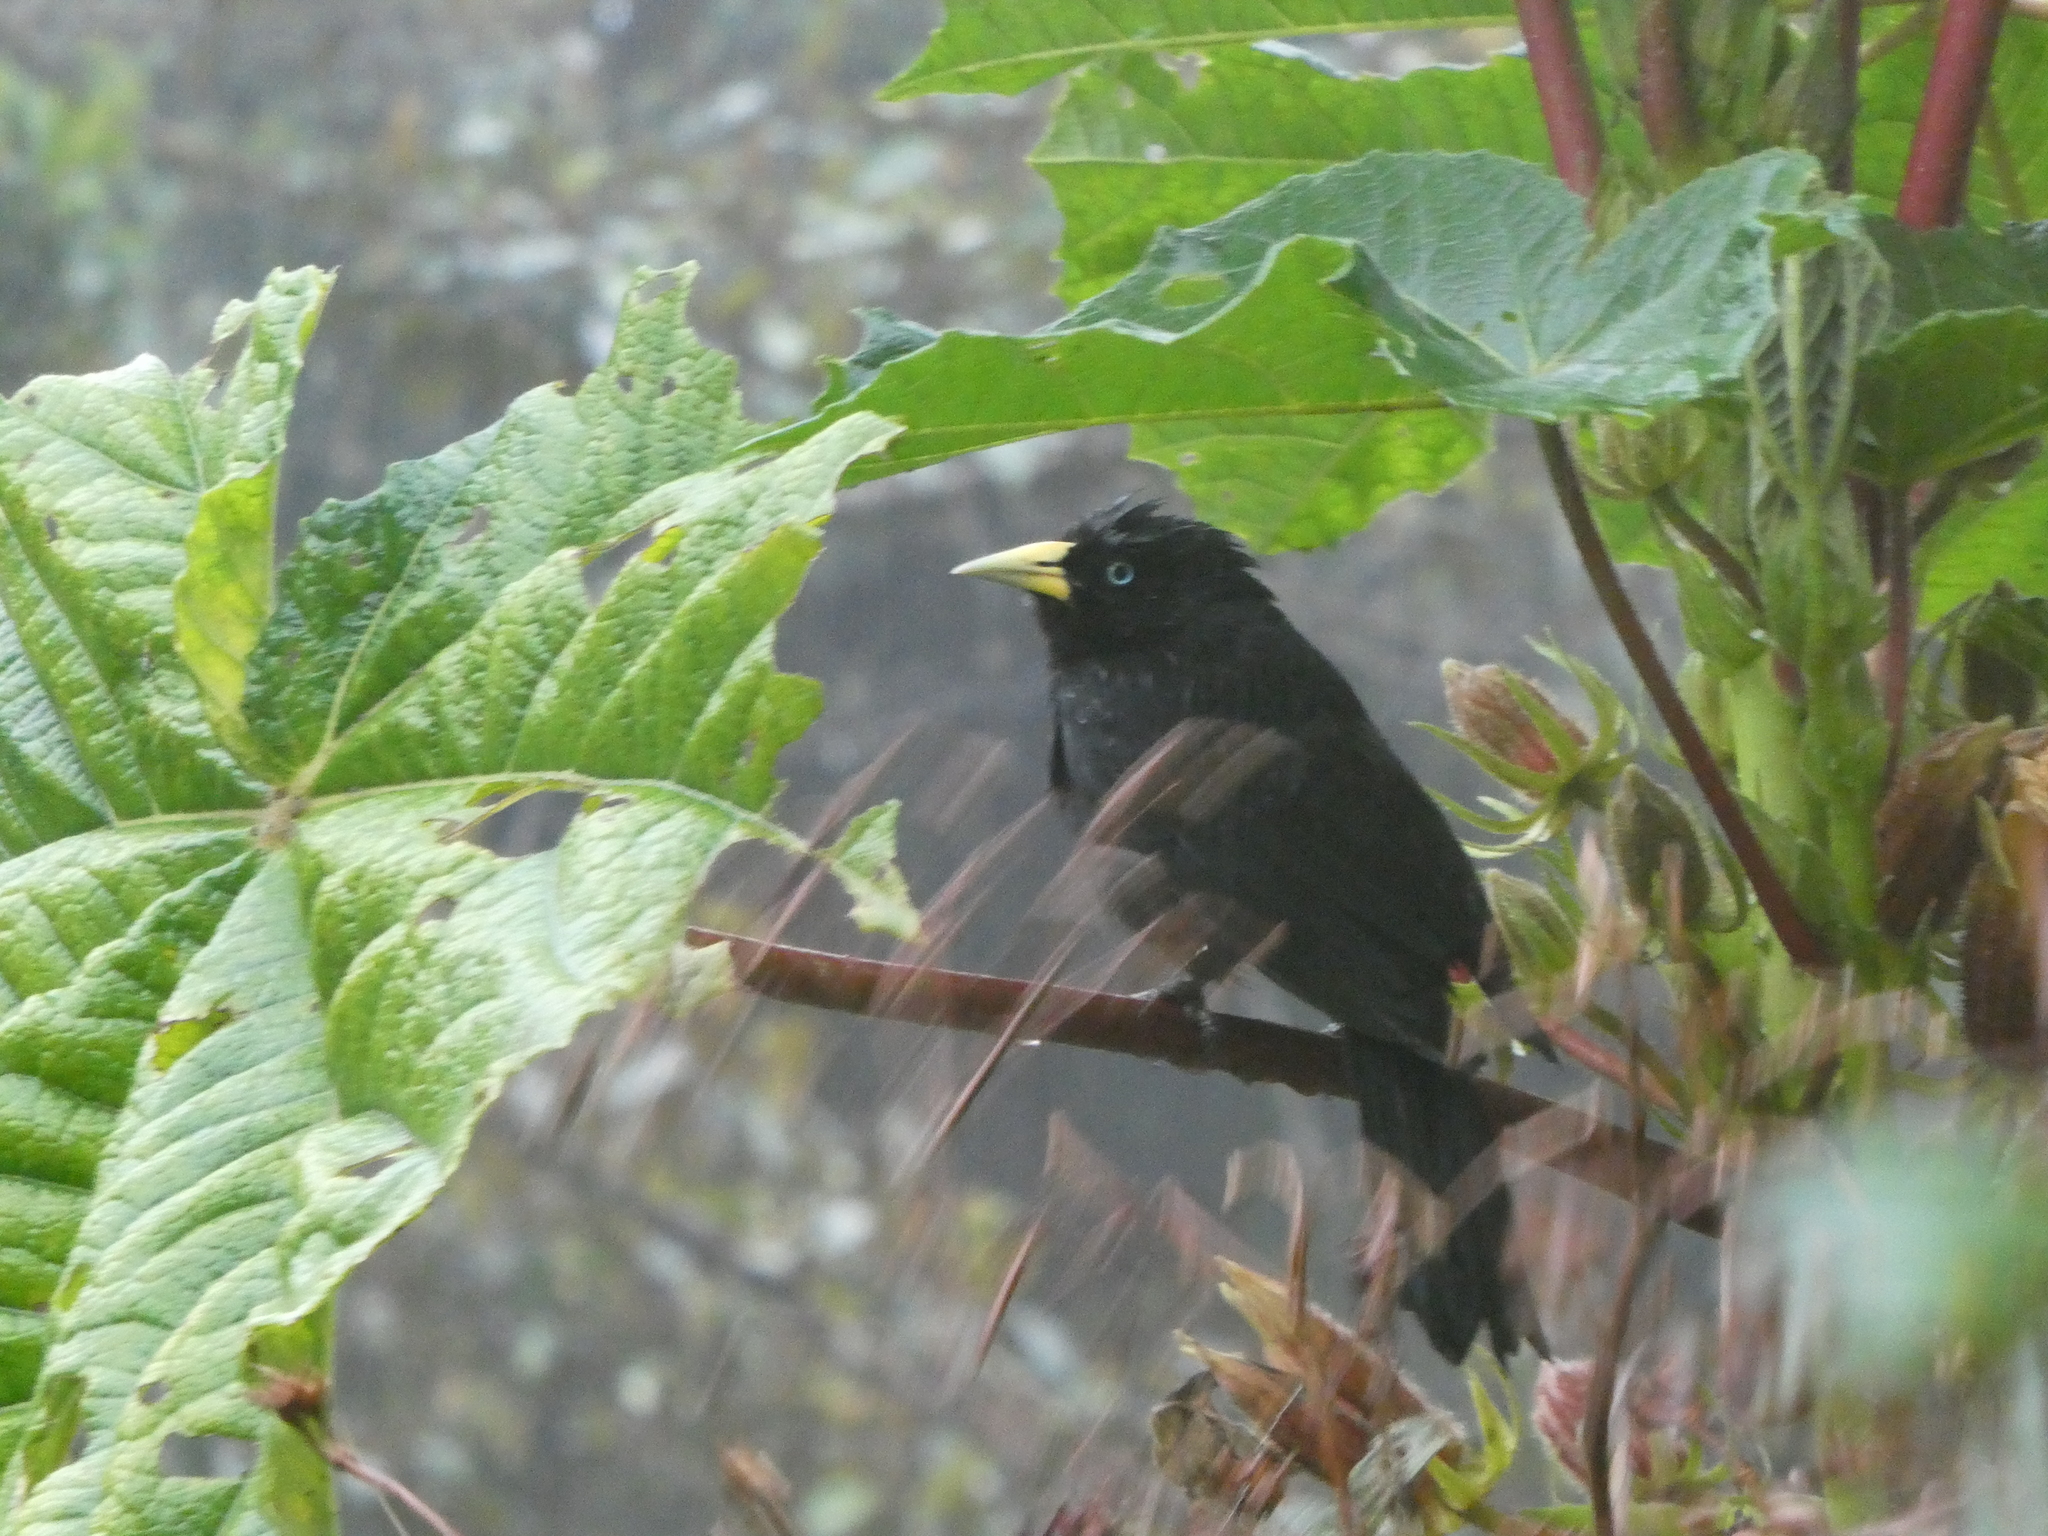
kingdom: Animalia
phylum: Chordata
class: Aves
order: Passeriformes
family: Icteridae
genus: Cacicus
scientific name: Cacicus uropygialis
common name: Scarlet-rumped cacique
